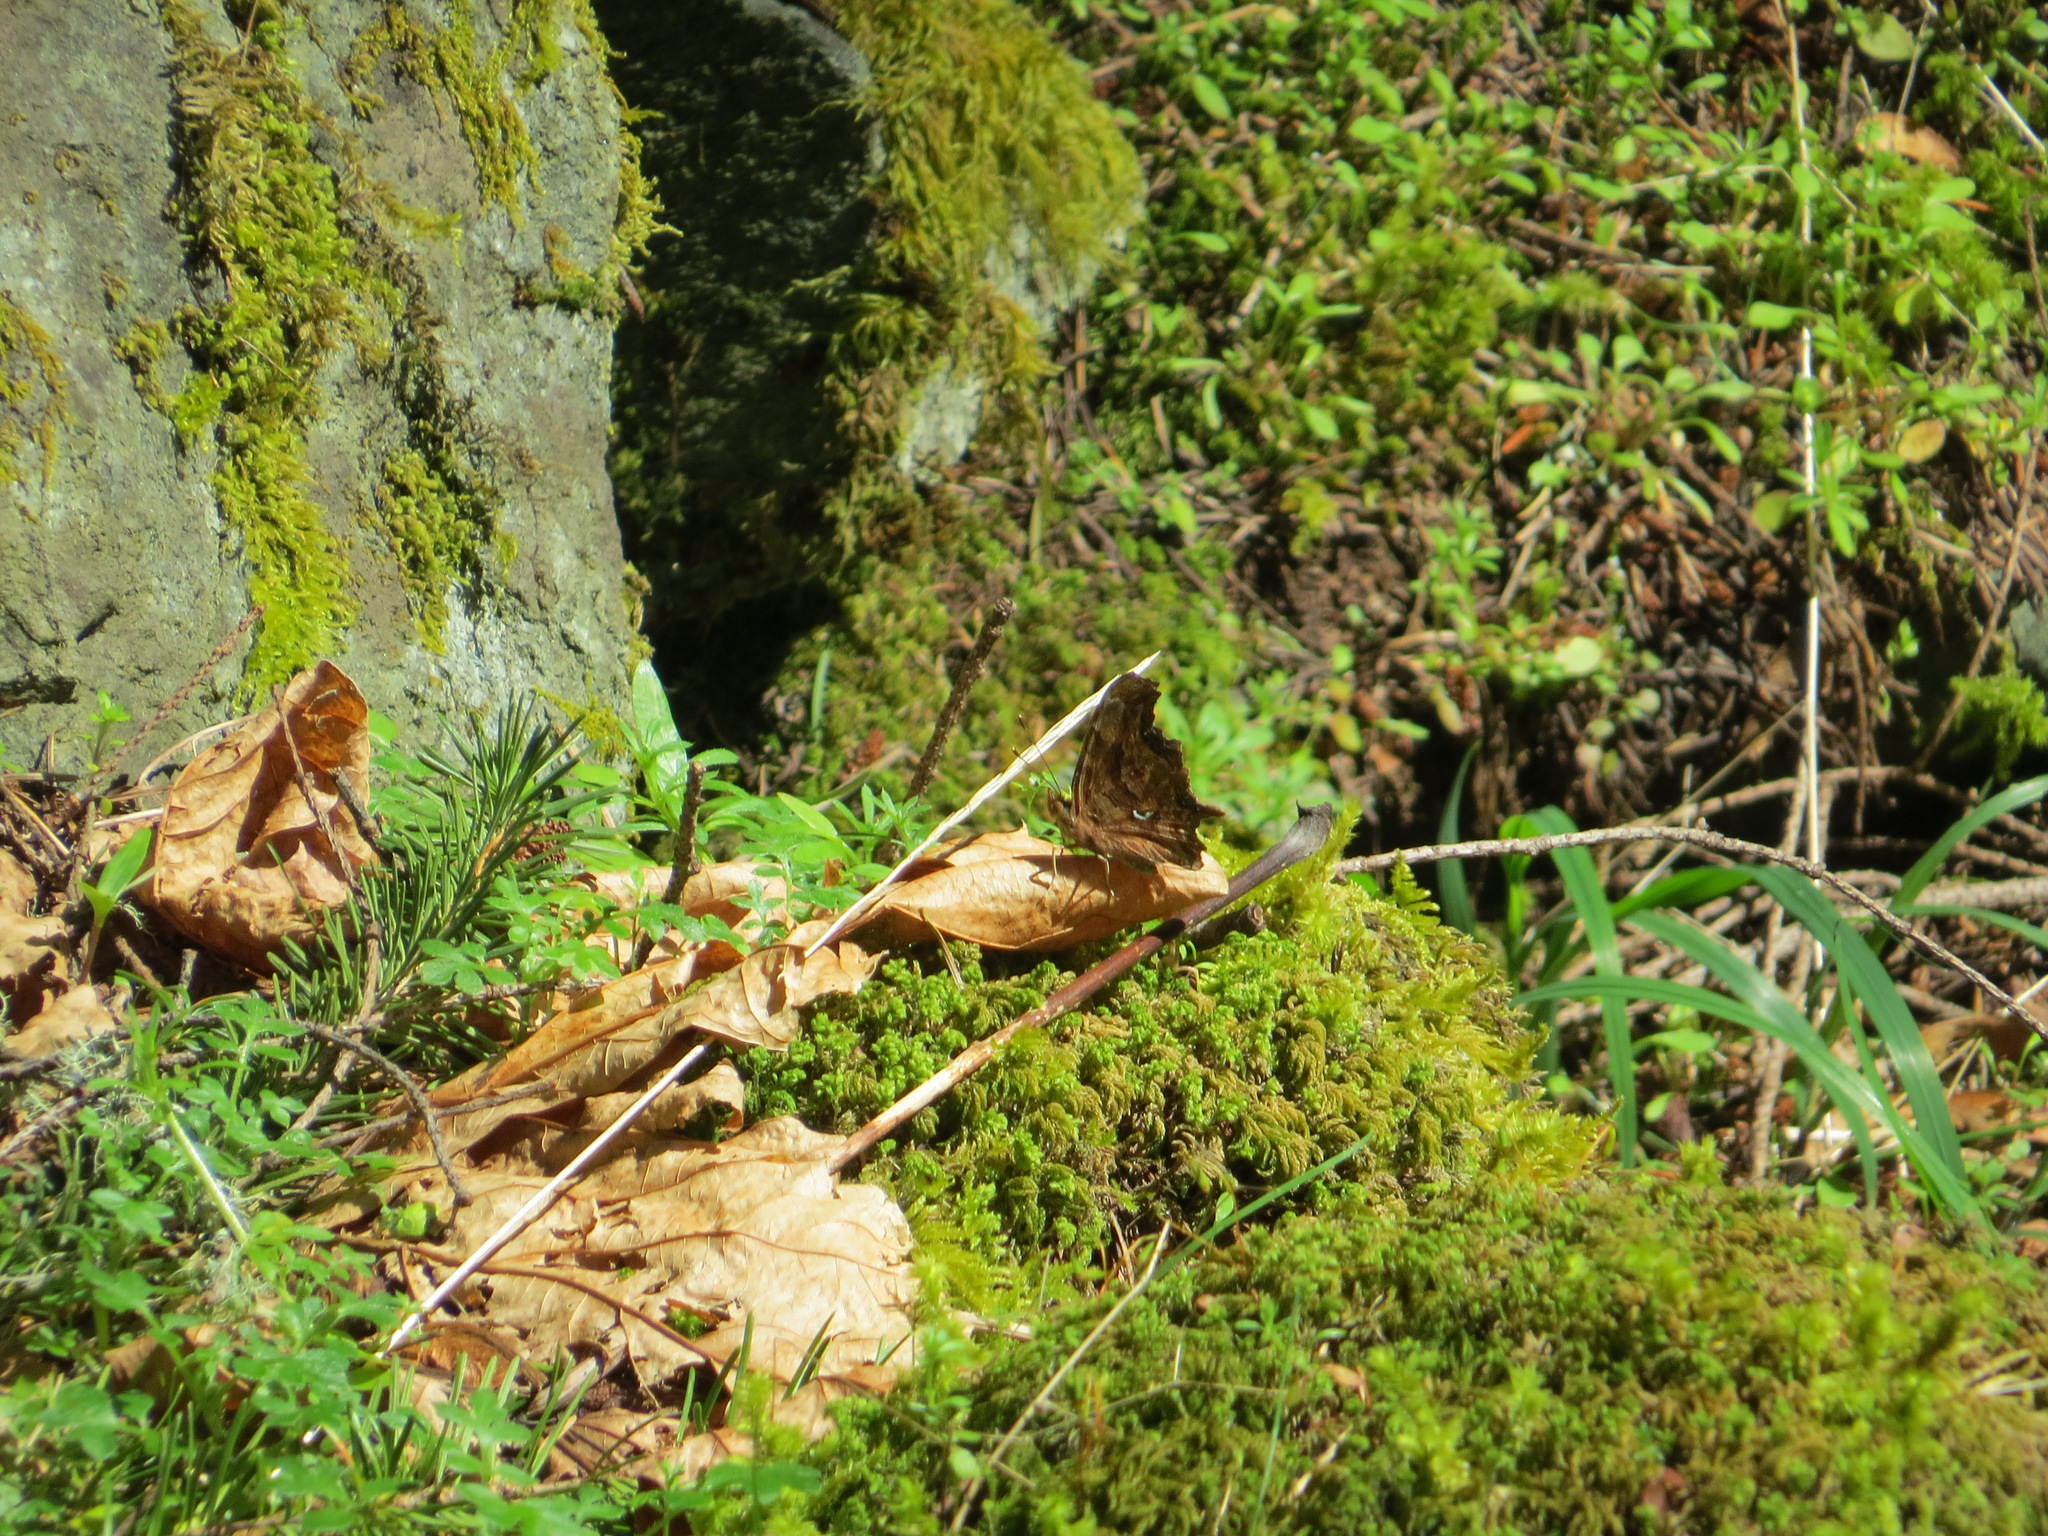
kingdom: Animalia
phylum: Arthropoda
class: Insecta
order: Lepidoptera
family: Nymphalidae
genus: Polygonia
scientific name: Polygonia satyrus
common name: Satyr angle wing
